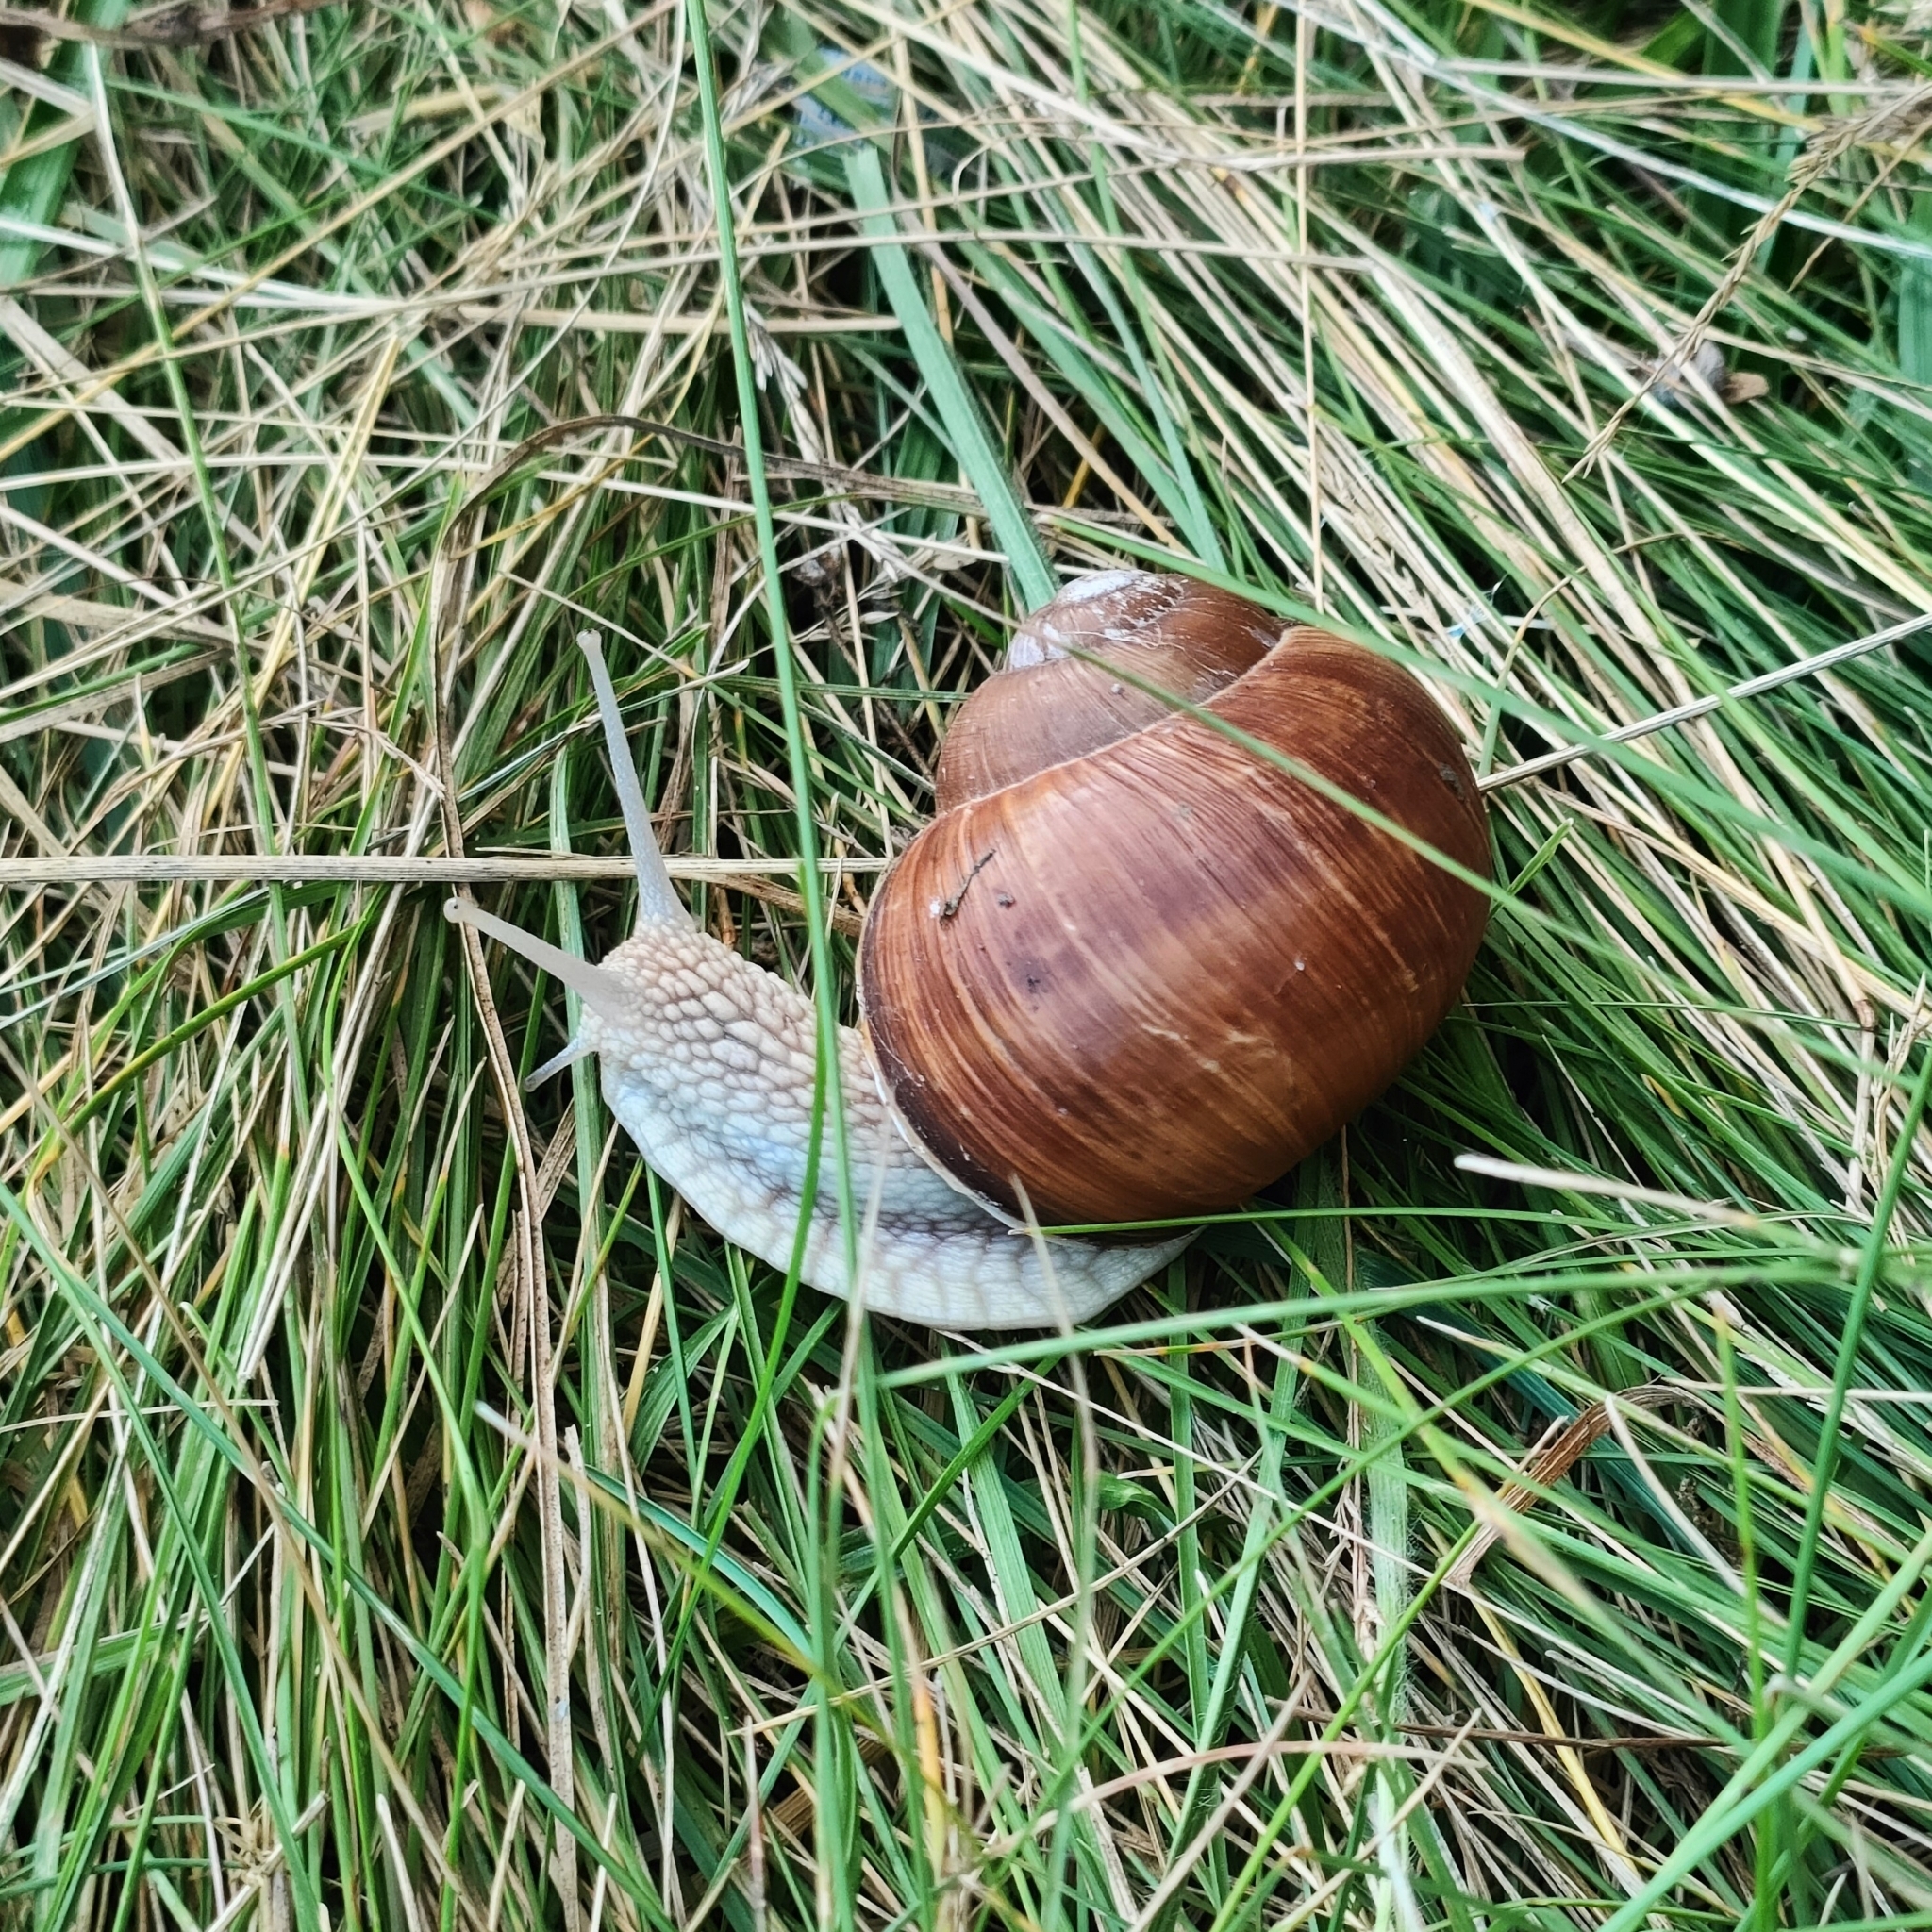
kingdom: Animalia
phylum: Mollusca
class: Gastropoda
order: Stylommatophora
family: Helicidae
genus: Helix
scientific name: Helix pomatia
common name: Roman snail
